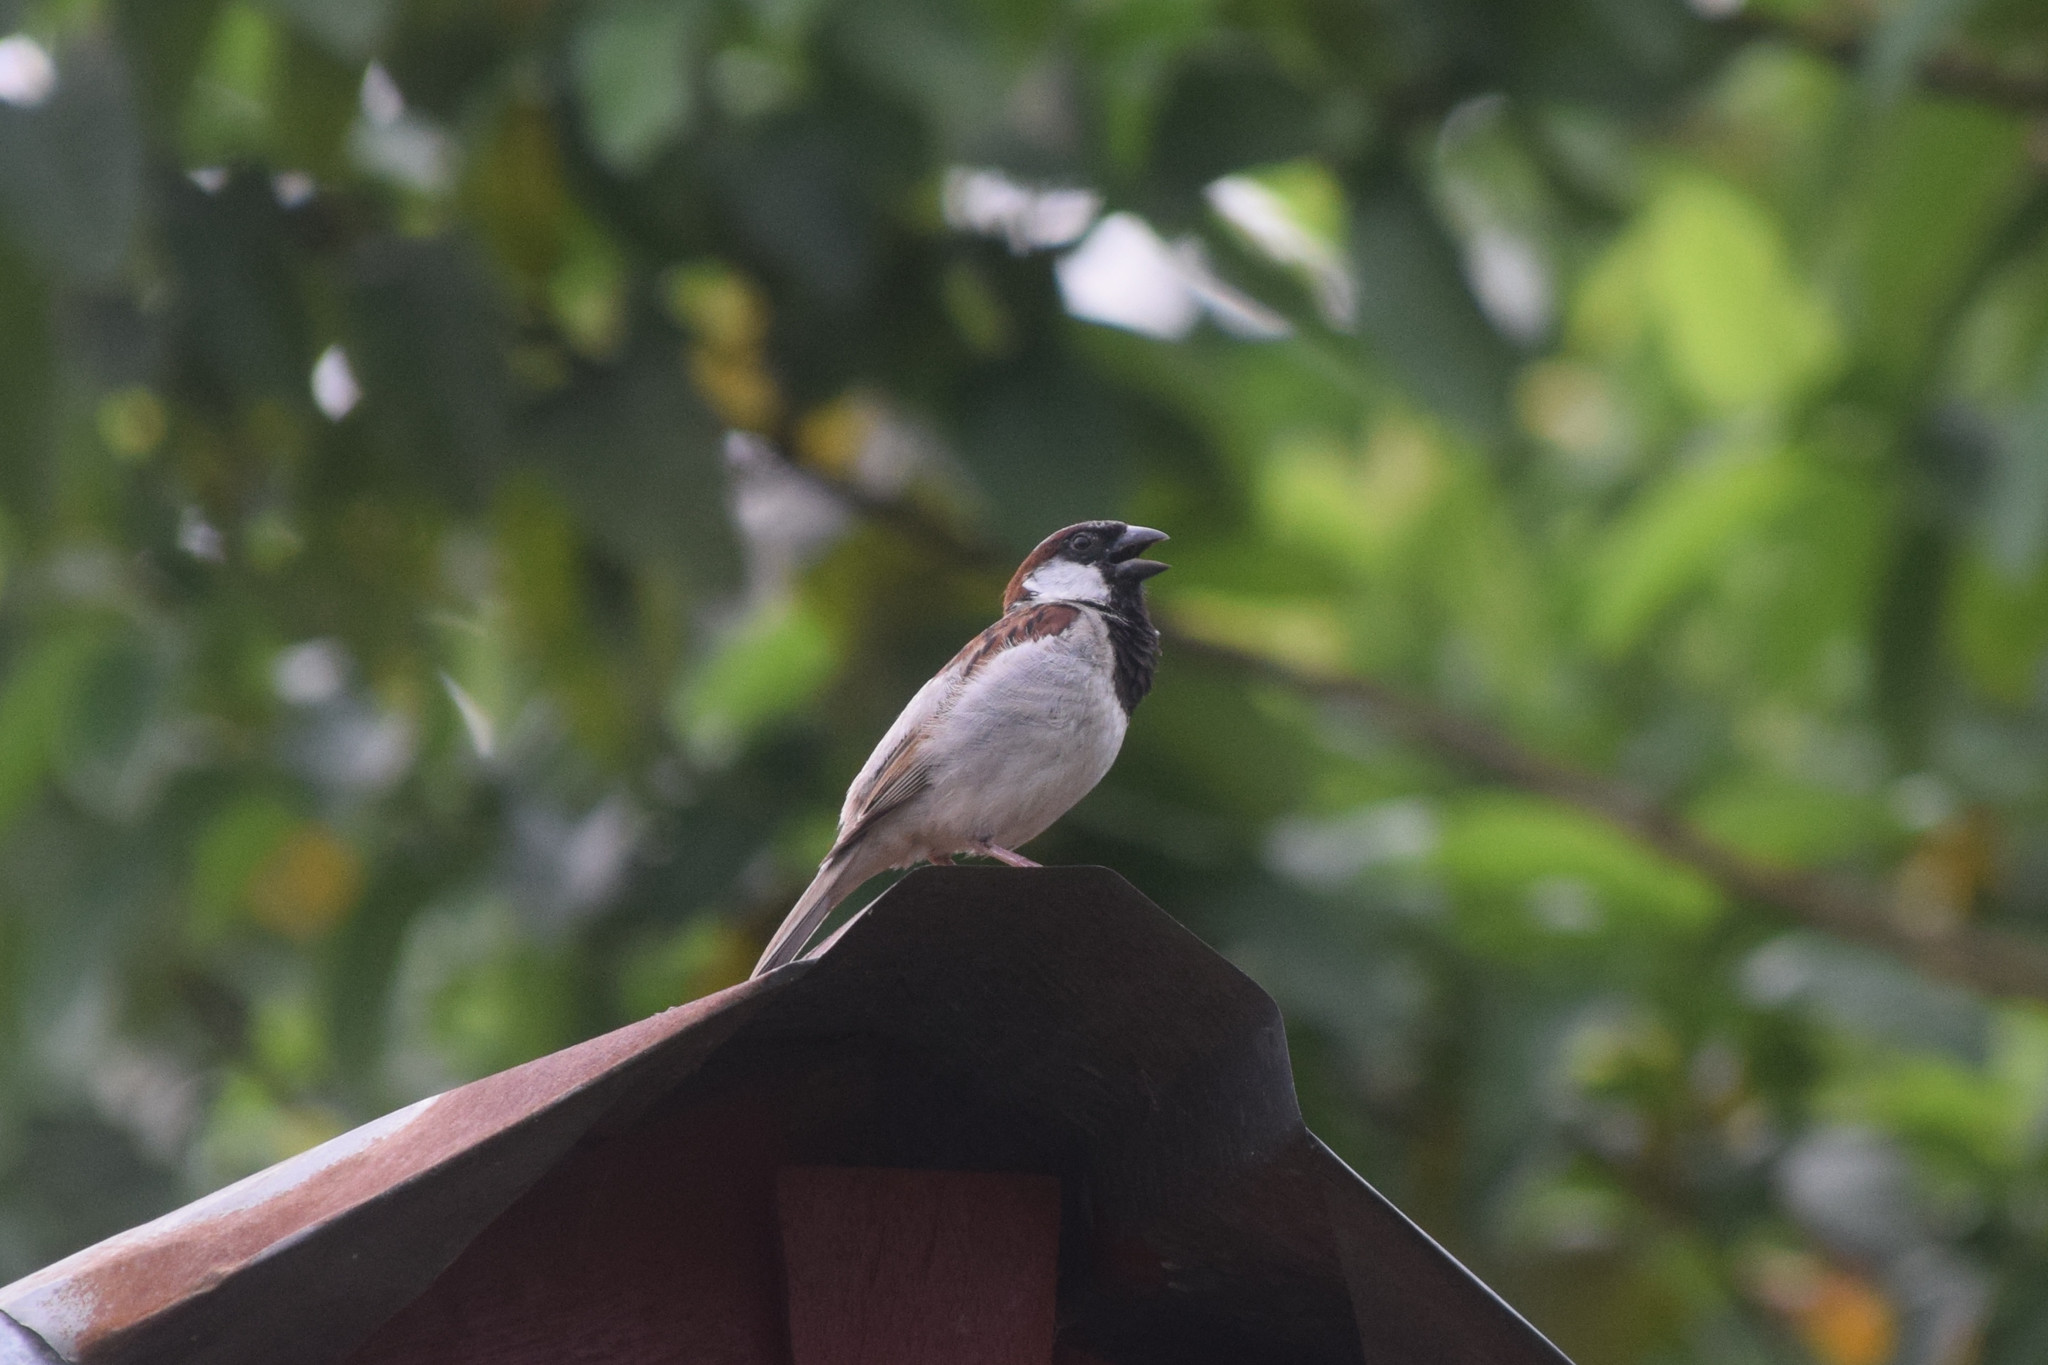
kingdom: Animalia
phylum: Chordata
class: Aves
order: Passeriformes
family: Passeridae
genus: Passer
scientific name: Passer domesticus
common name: House sparrow
